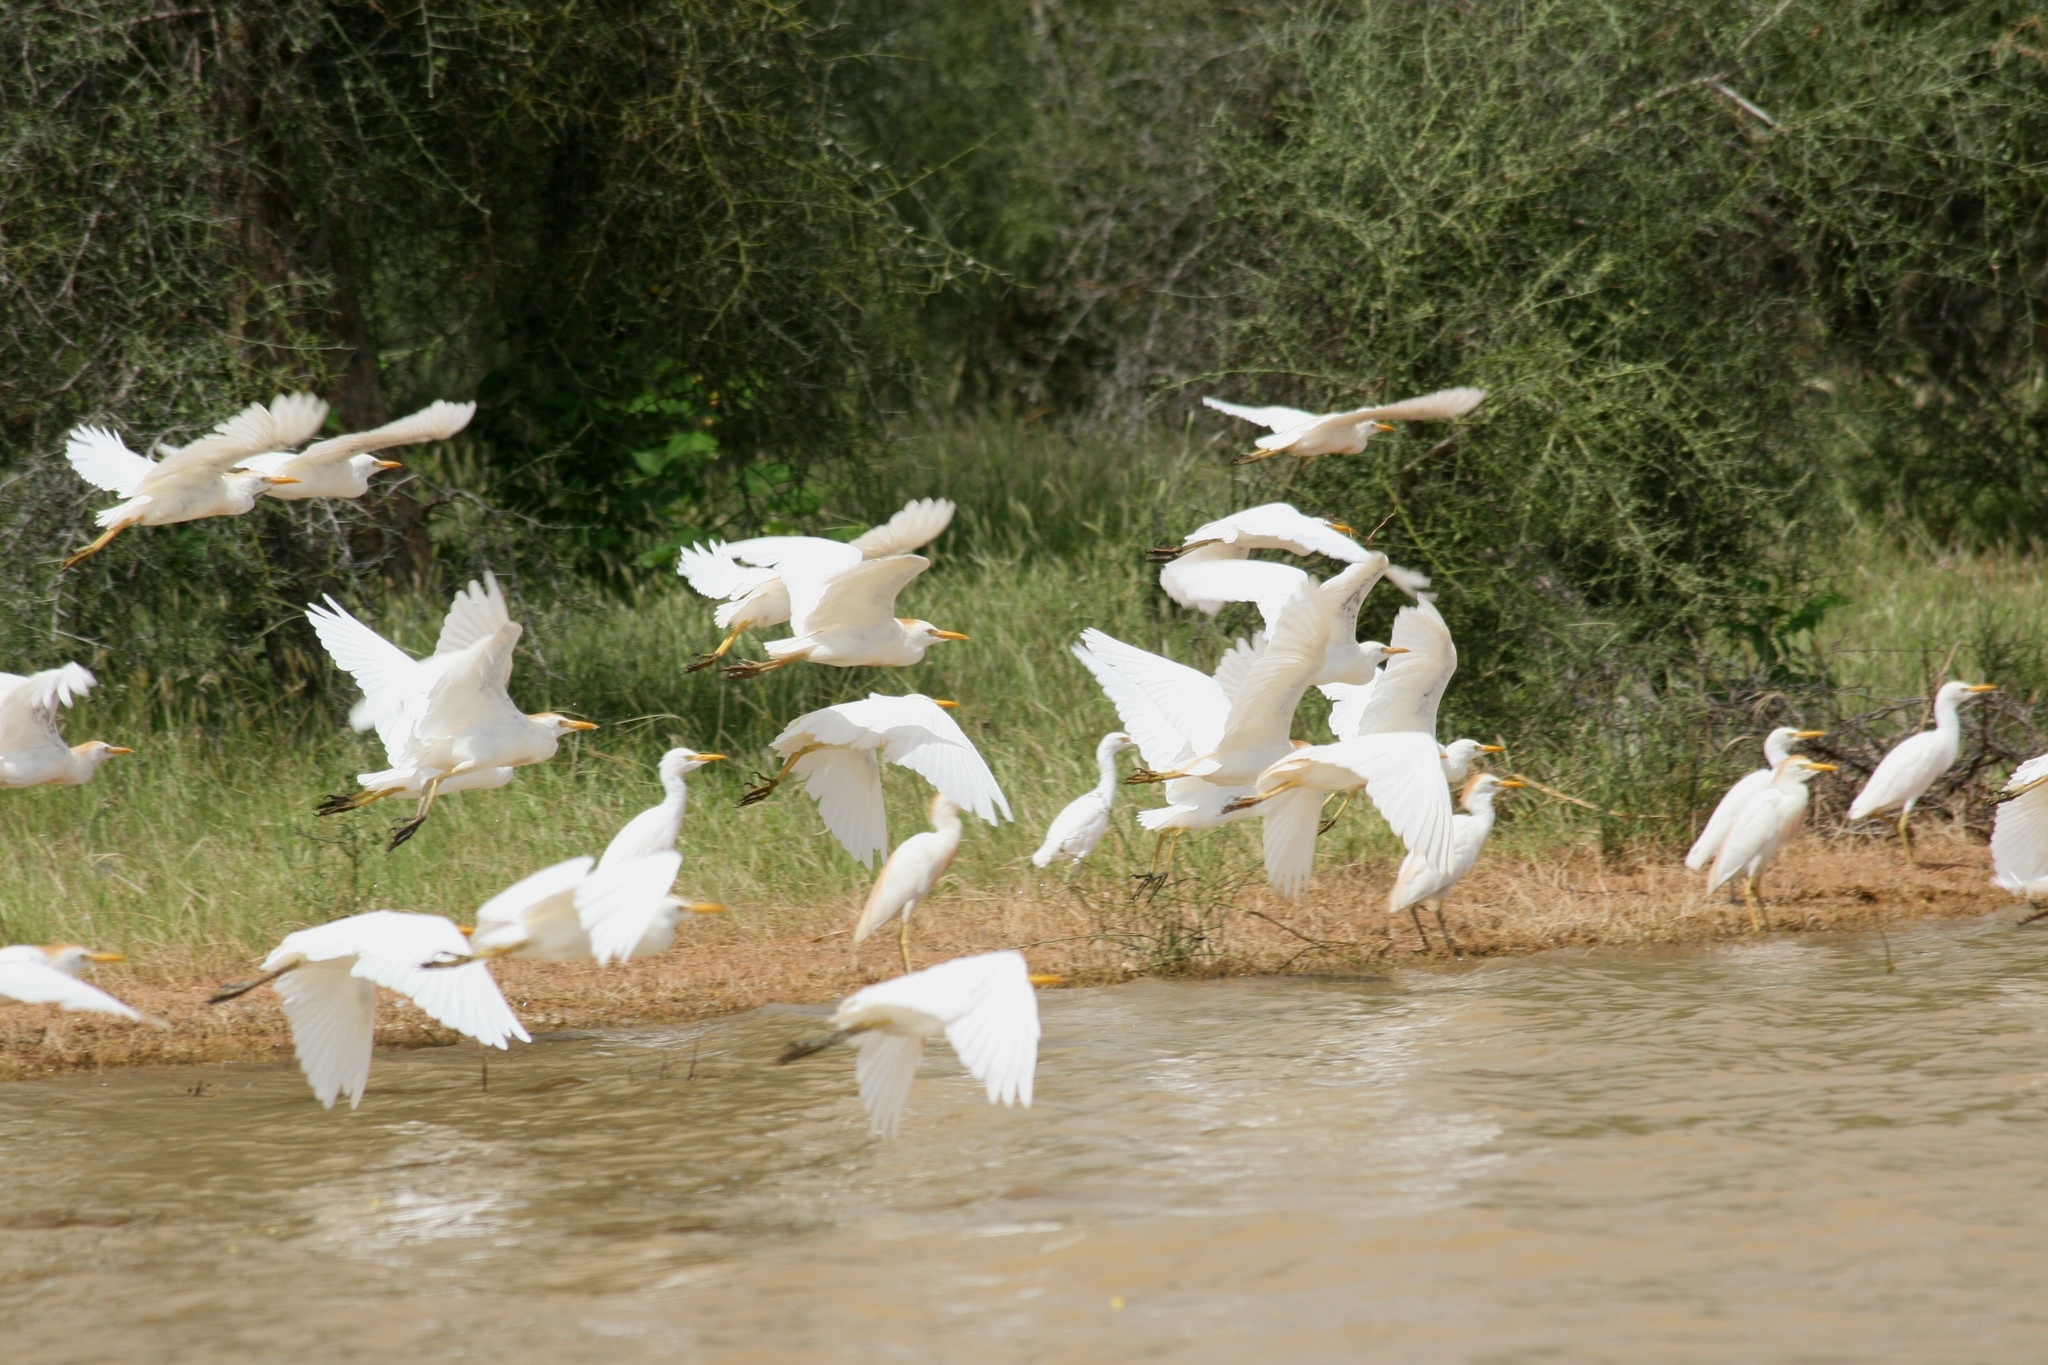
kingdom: Animalia
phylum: Chordata
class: Aves
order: Pelecaniformes
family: Ardeidae
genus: Bubulcus
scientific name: Bubulcus ibis
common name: Cattle egret
